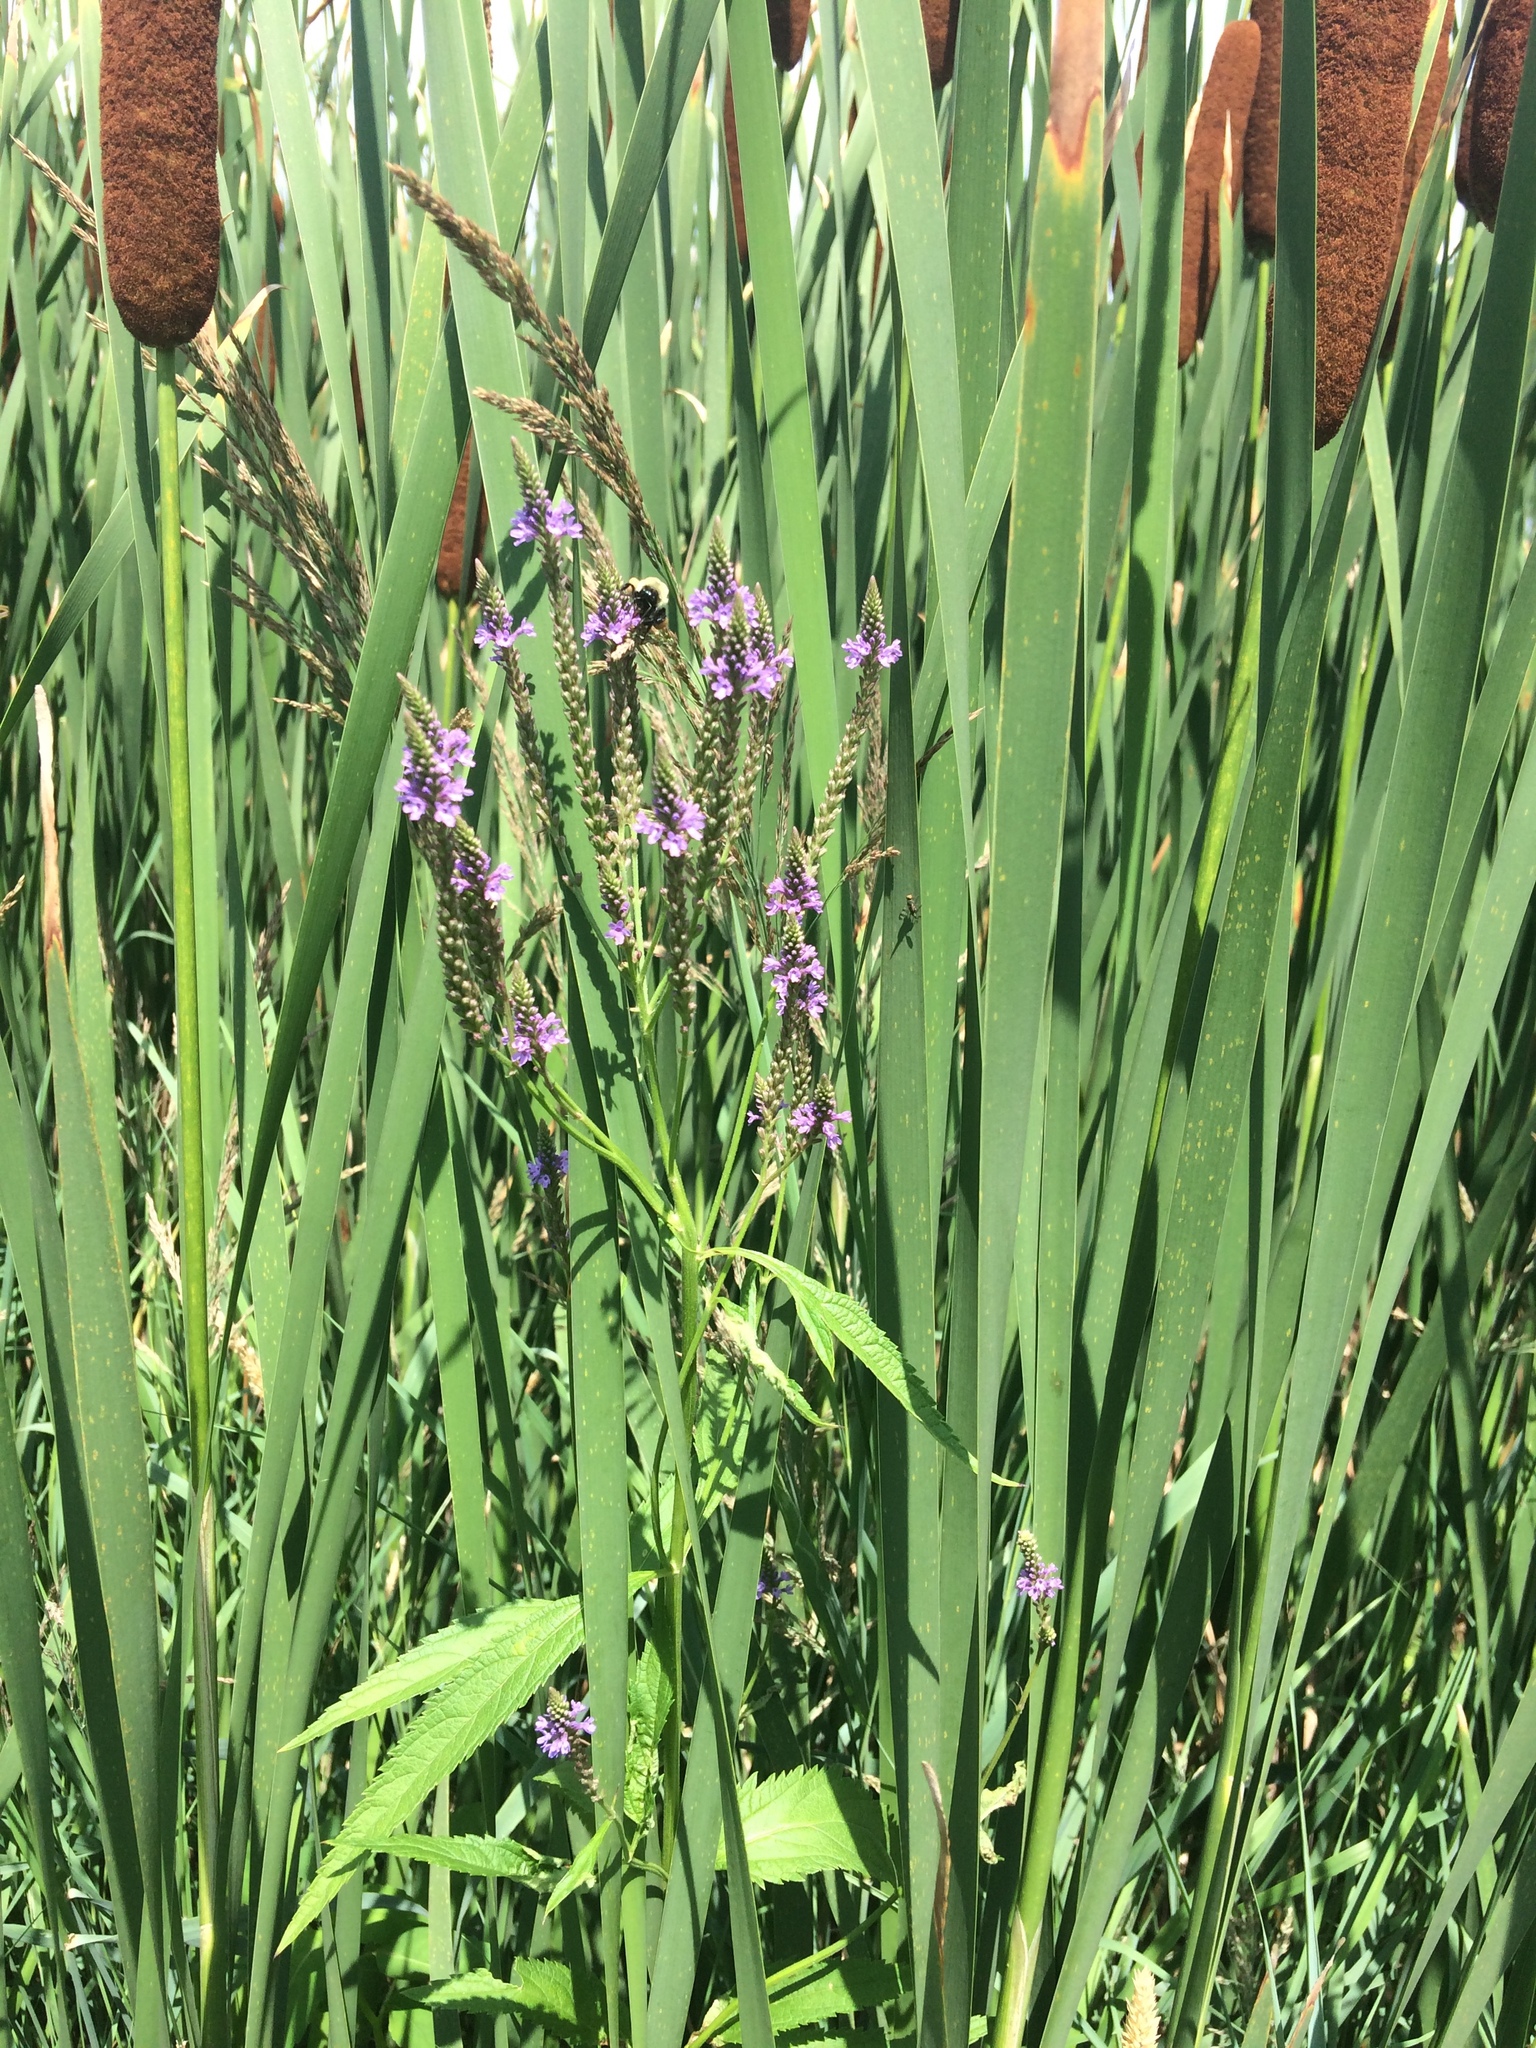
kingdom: Plantae
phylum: Tracheophyta
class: Magnoliopsida
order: Lamiales
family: Verbenaceae
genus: Verbena
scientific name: Verbena hastata
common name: American blue vervain
